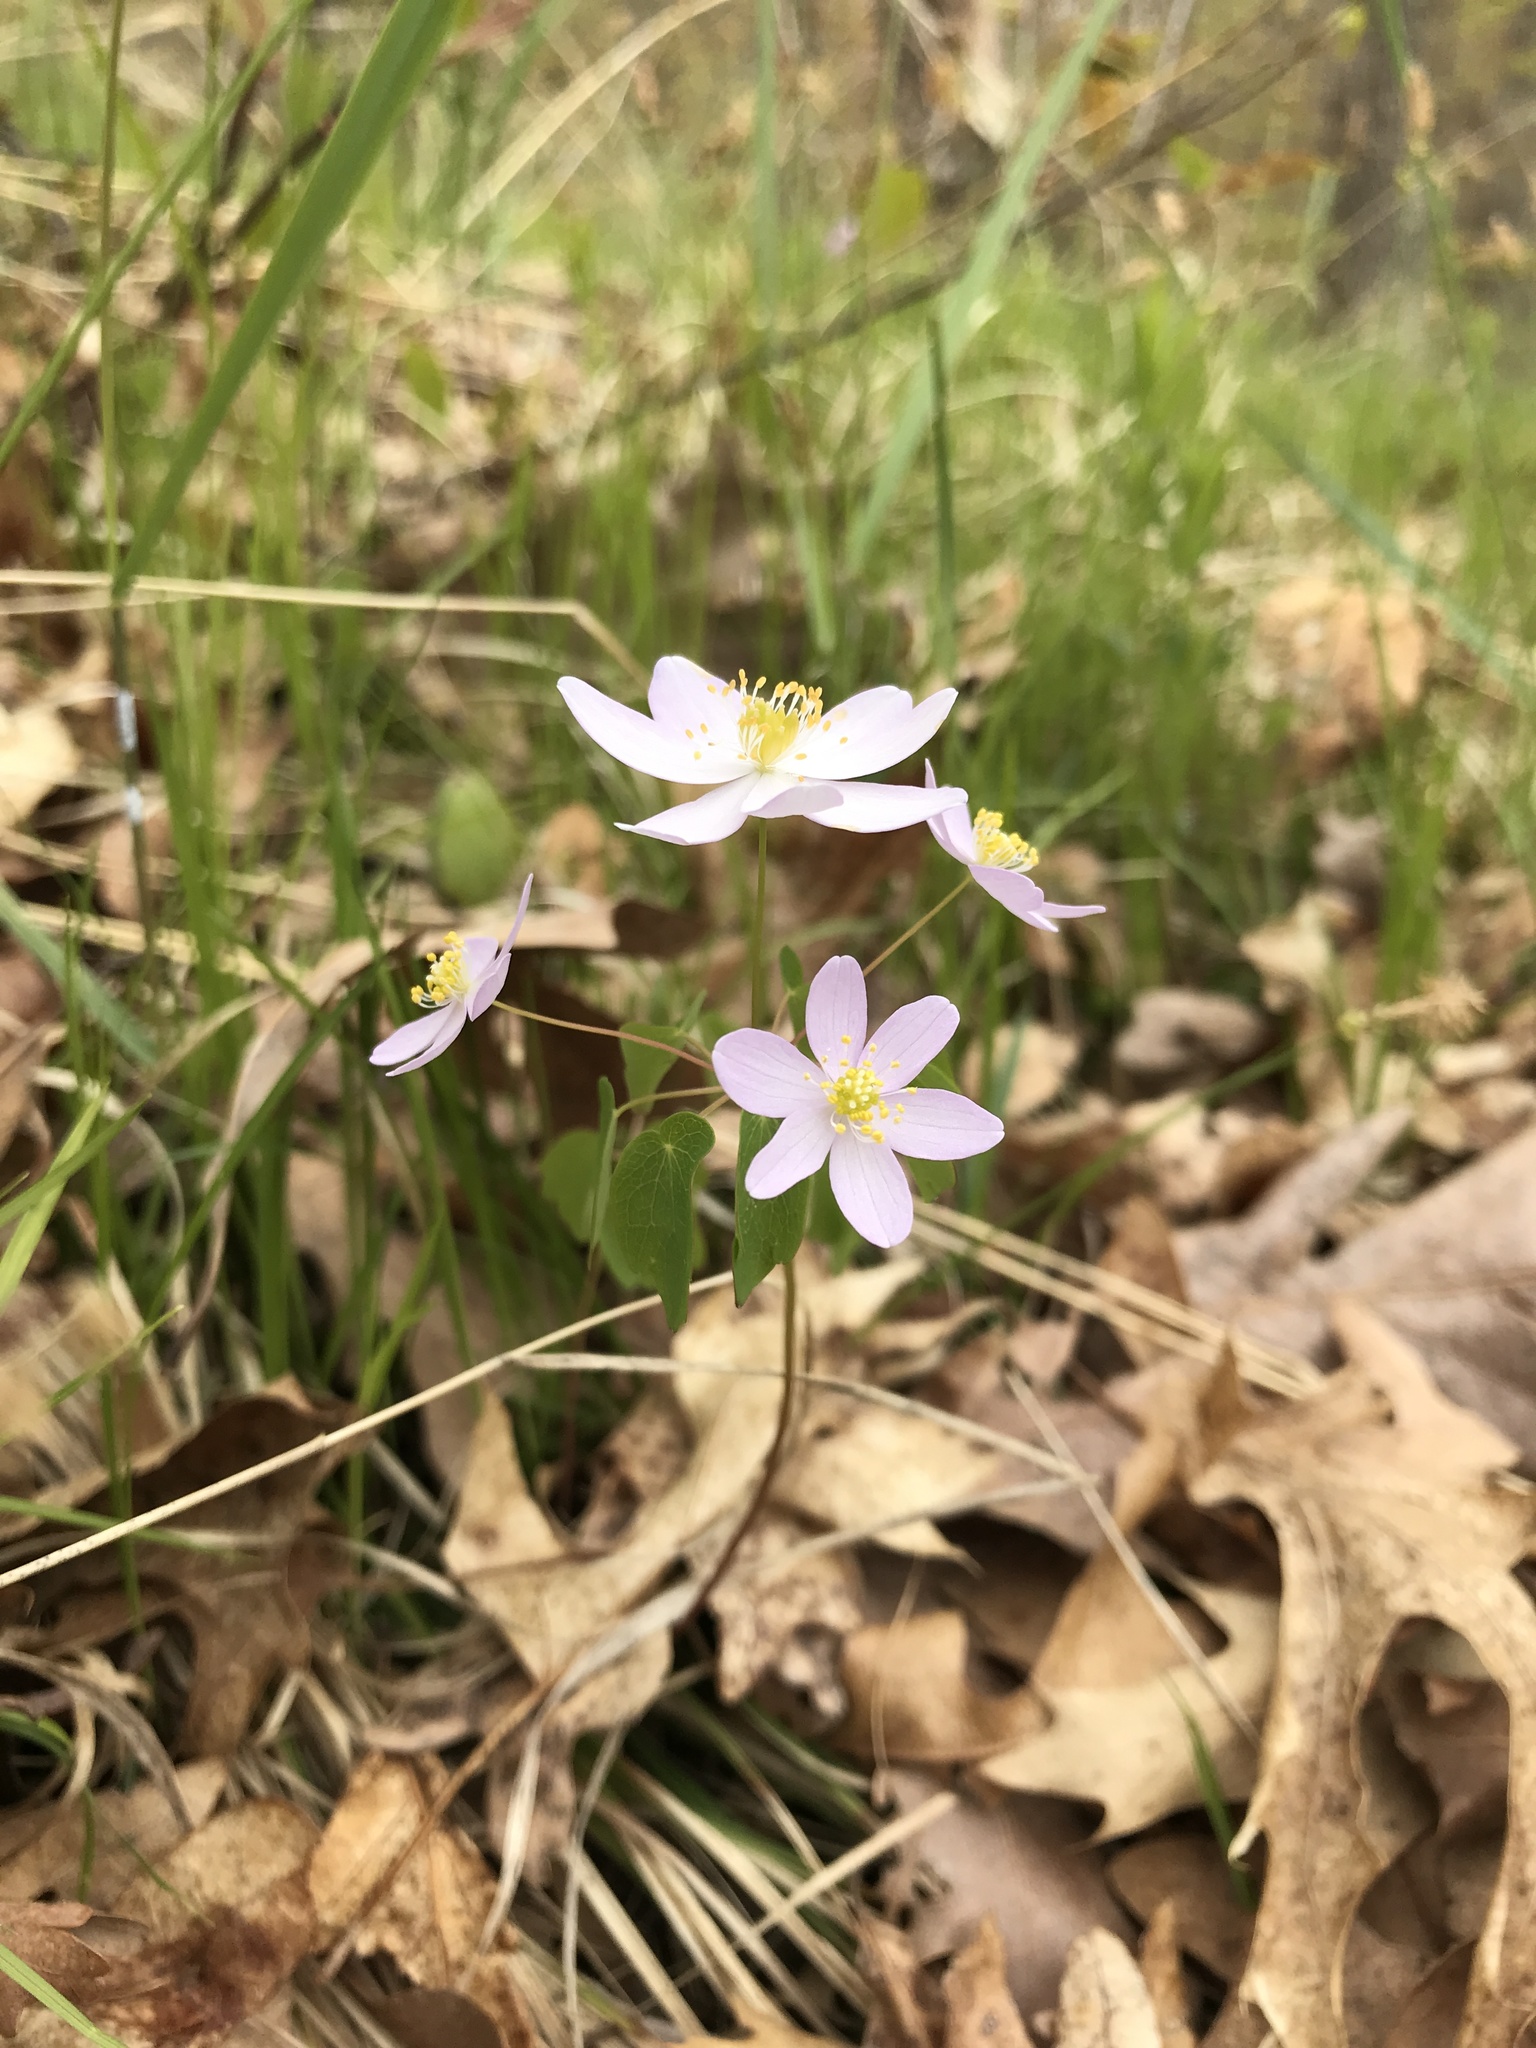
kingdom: Plantae
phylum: Tracheophyta
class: Magnoliopsida
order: Ranunculales
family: Ranunculaceae
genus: Thalictrum
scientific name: Thalictrum thalictroides
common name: Rue-anemone
